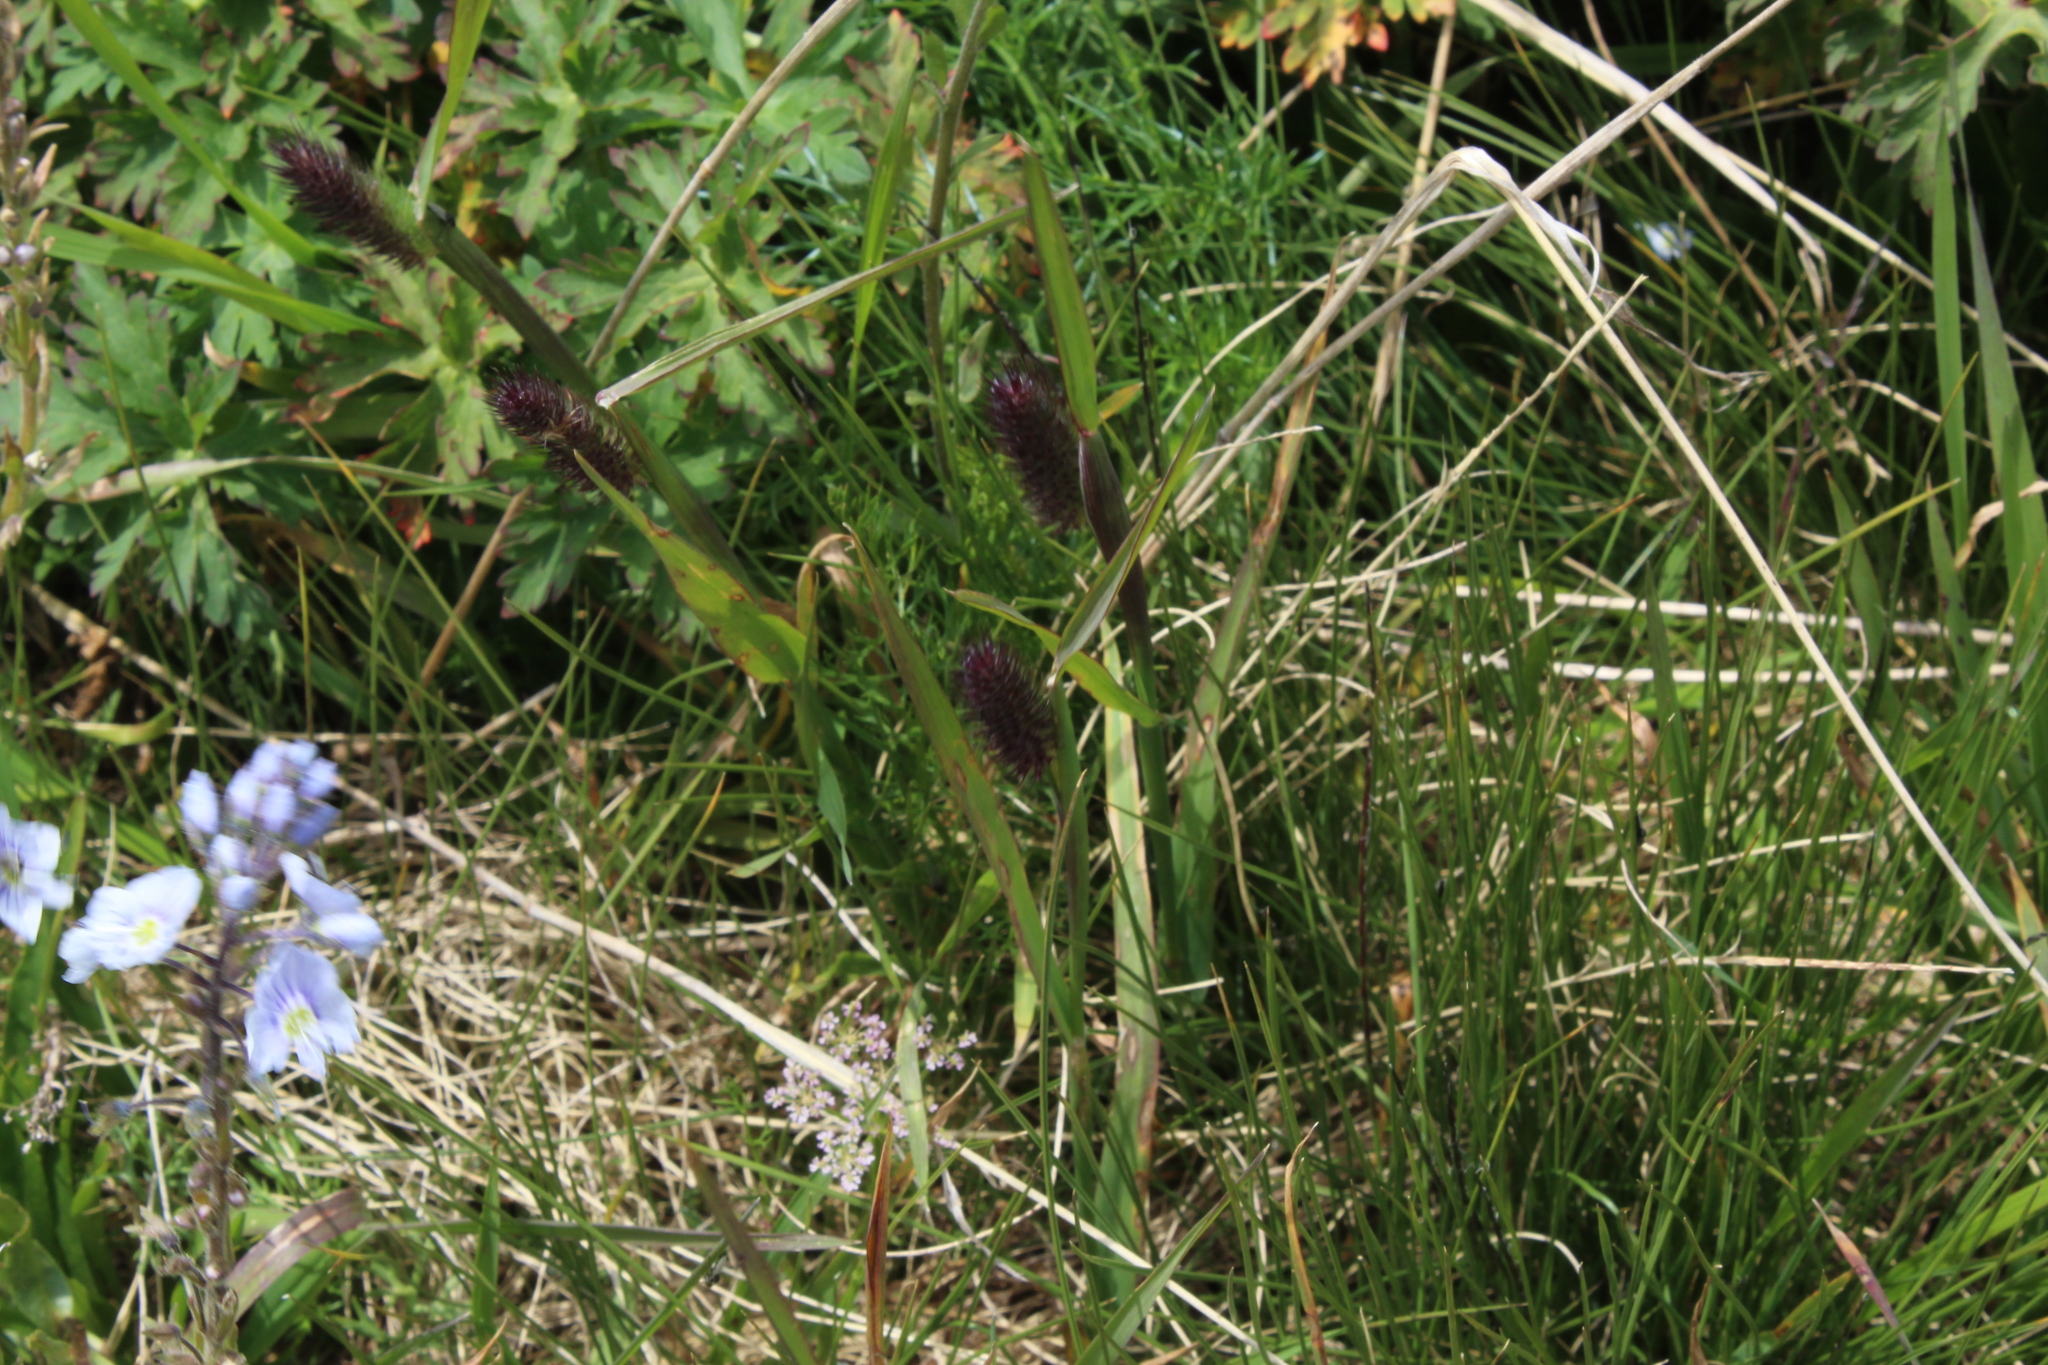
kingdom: Plantae
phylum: Tracheophyta
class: Liliopsida
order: Poales
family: Poaceae
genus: Phleum
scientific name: Phleum alpinum
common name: Alpine cat's-tail
